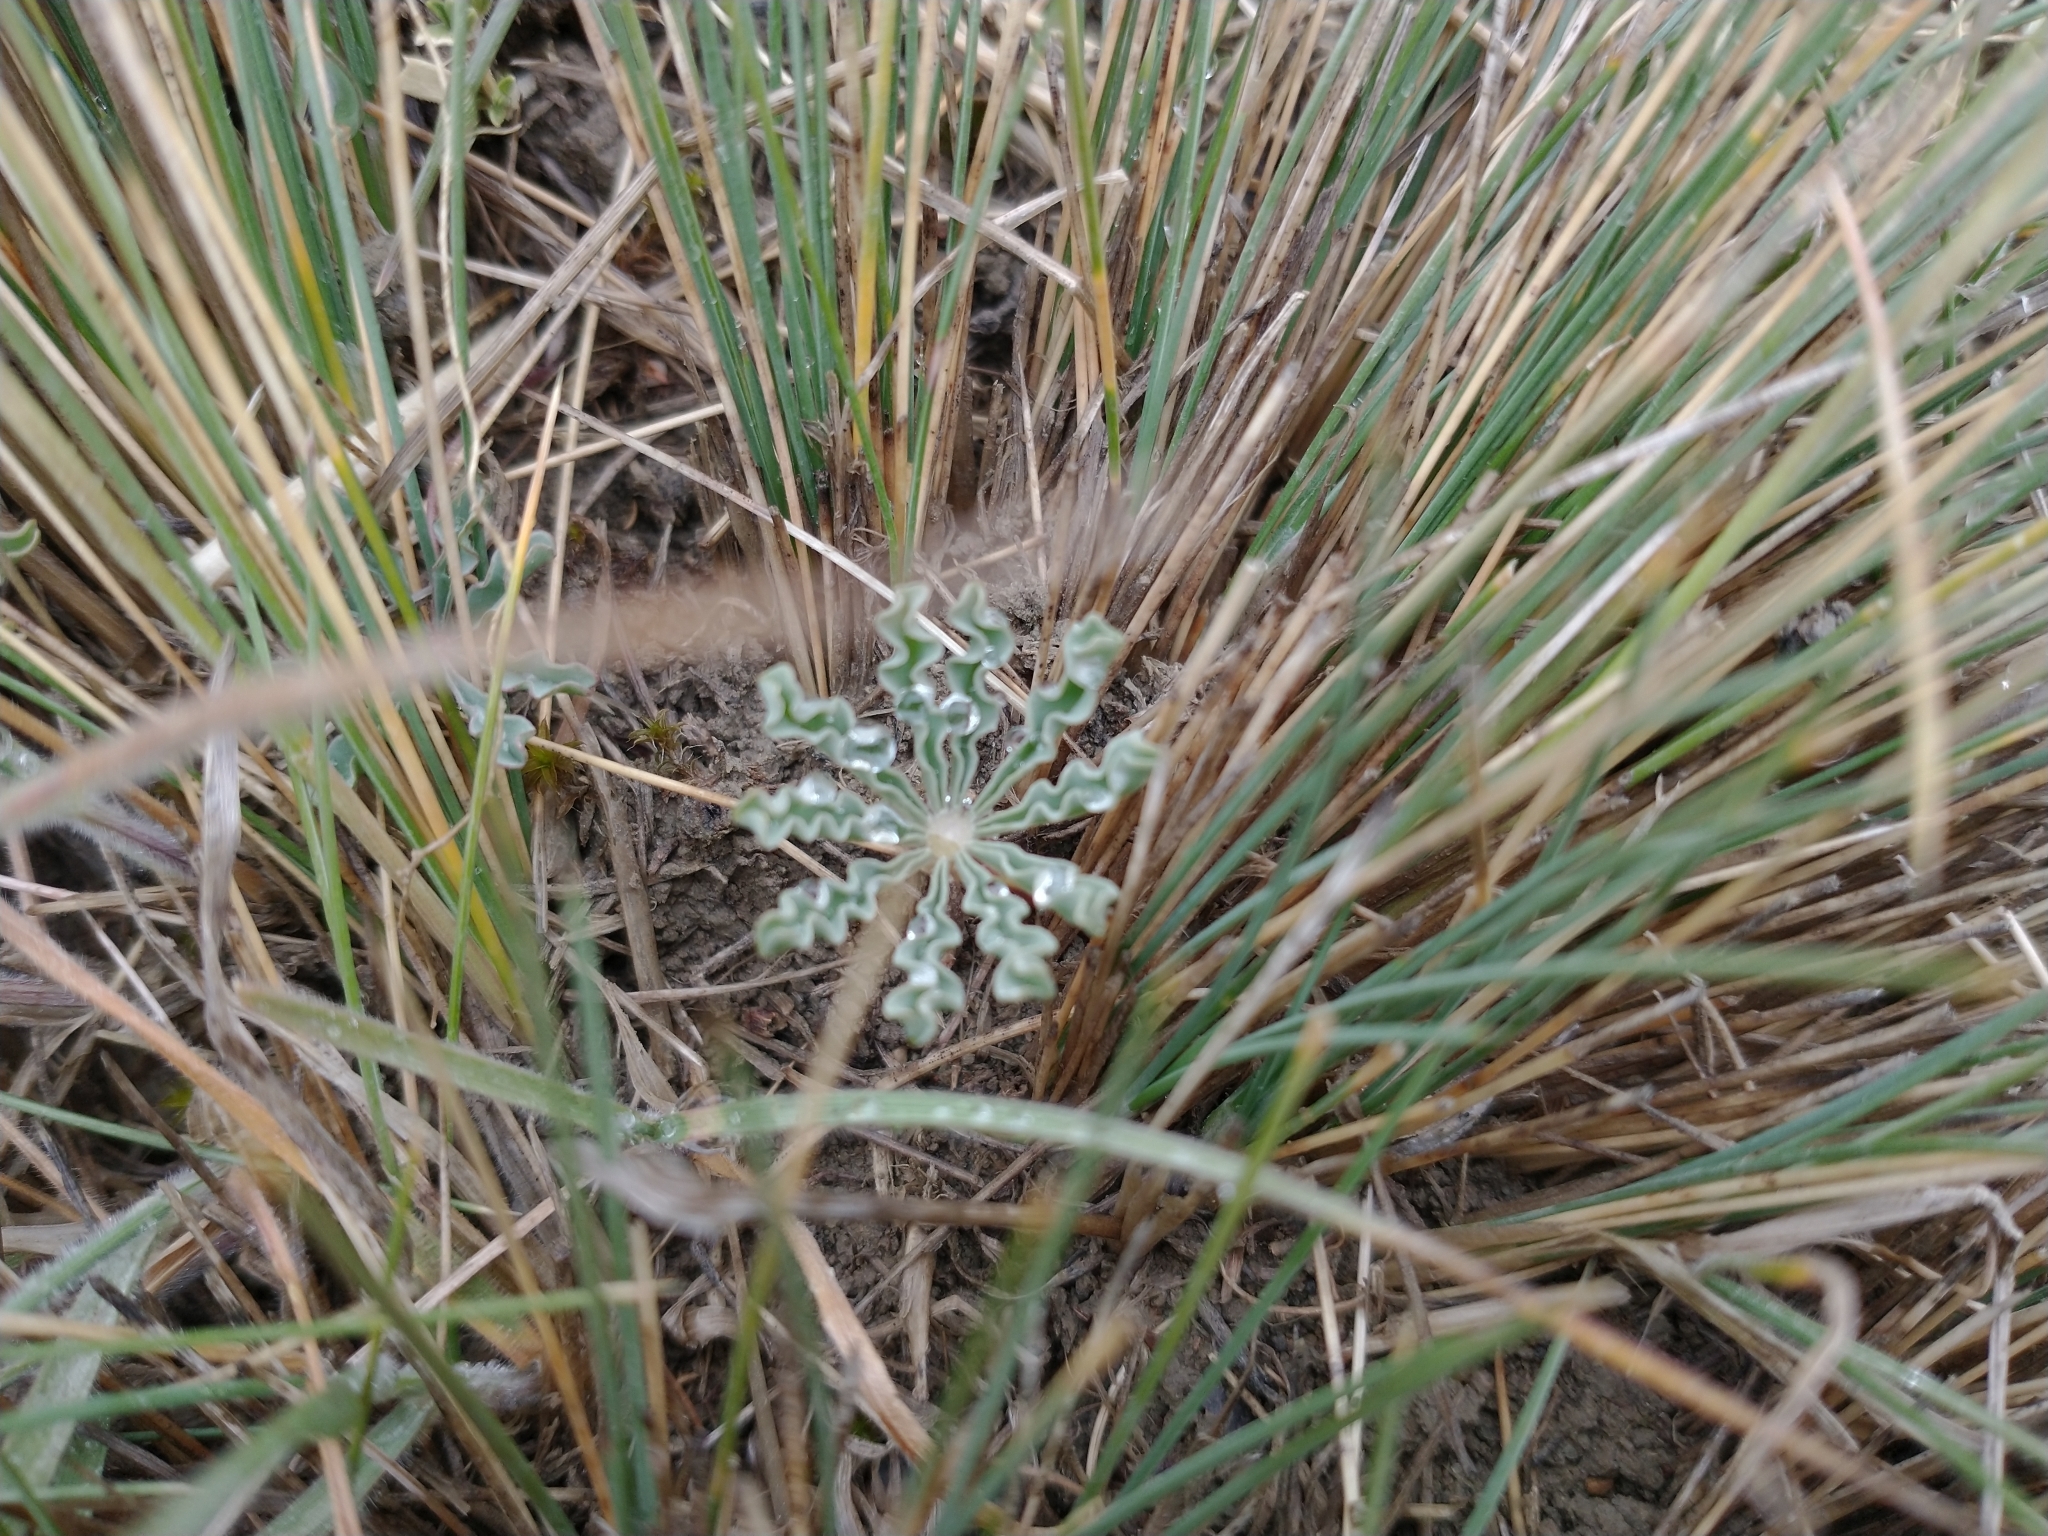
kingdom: Plantae
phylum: Tracheophyta
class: Magnoliopsida
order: Oxalidales
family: Oxalidaceae
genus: Oxalis
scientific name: Oxalis laciniata
